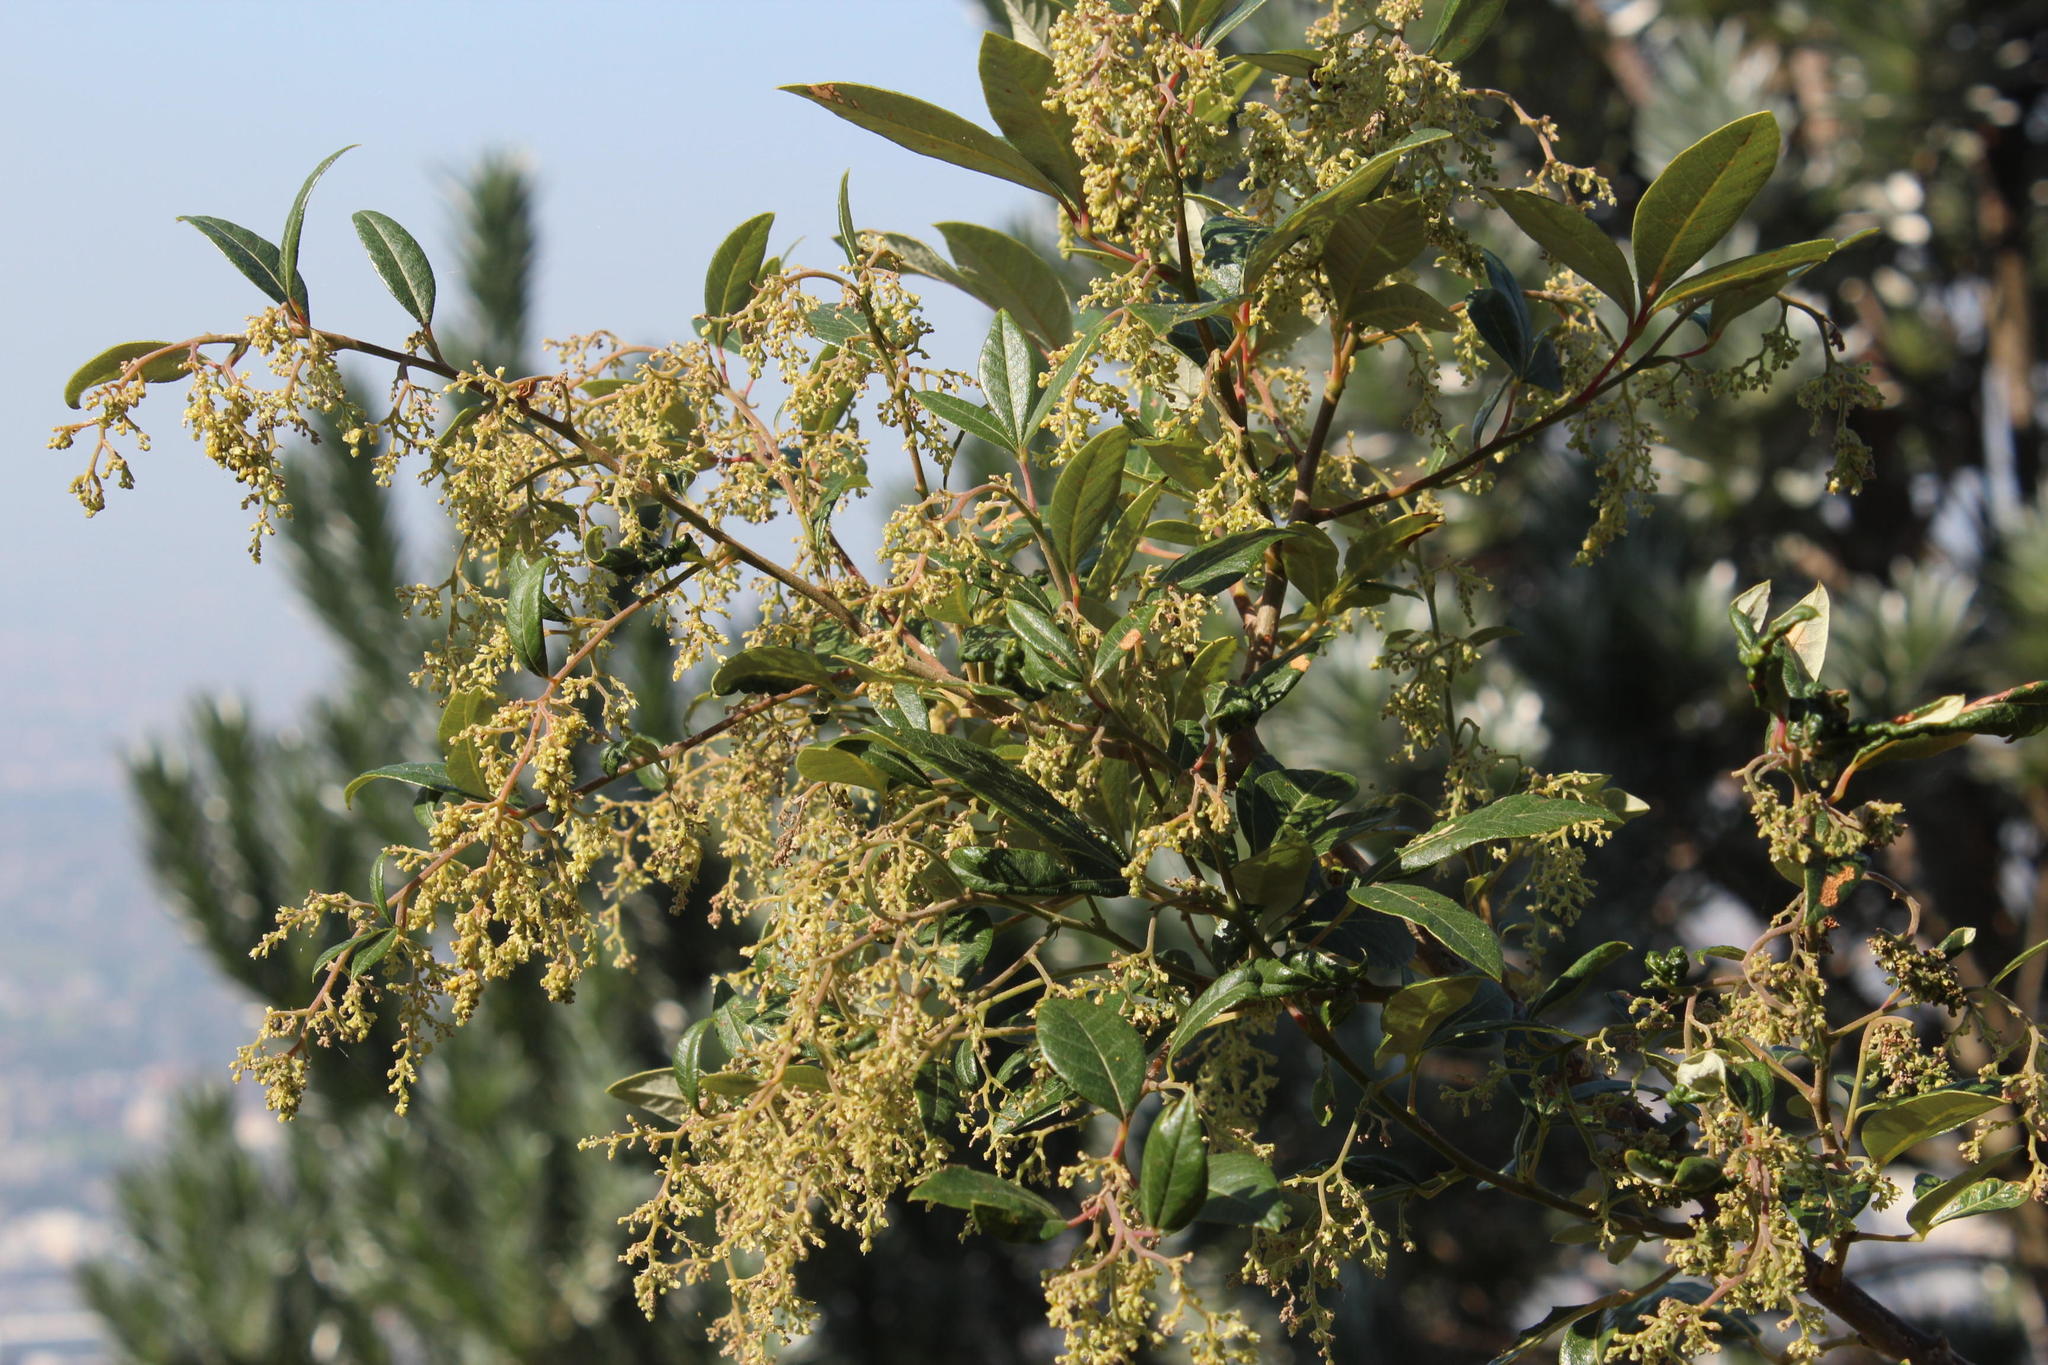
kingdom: Plantae
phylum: Tracheophyta
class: Magnoliopsida
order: Sapindales
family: Anacardiaceae
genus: Searsia
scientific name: Searsia tomentosa
